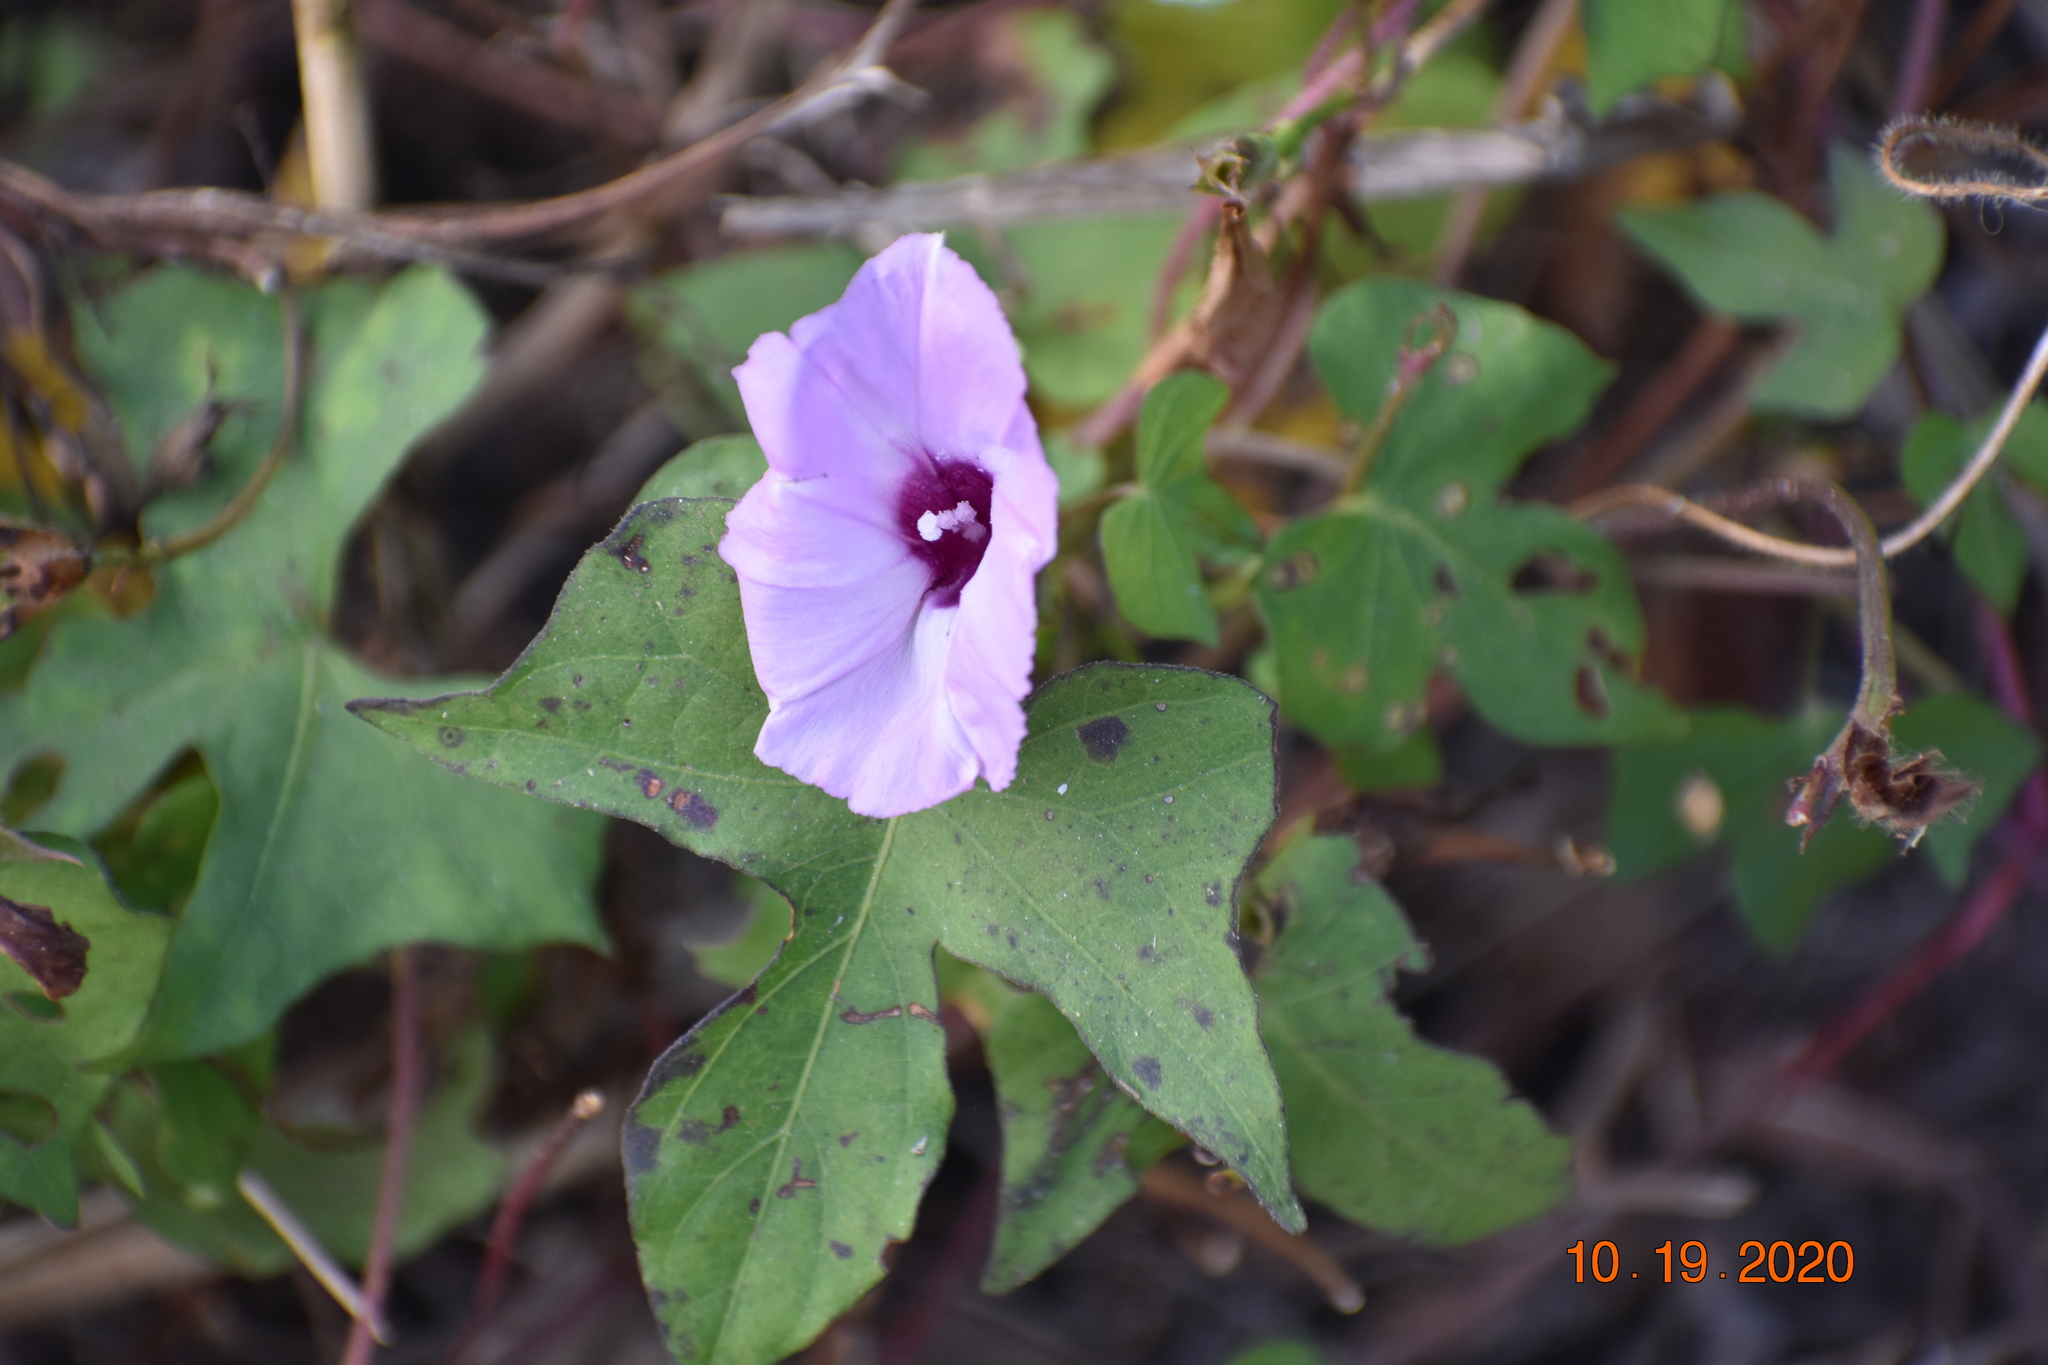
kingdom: Plantae
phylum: Tracheophyta
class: Magnoliopsida
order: Solanales
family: Convolvulaceae
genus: Ipomoea
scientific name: Ipomoea cordatotriloba
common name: Cotton morning glory
